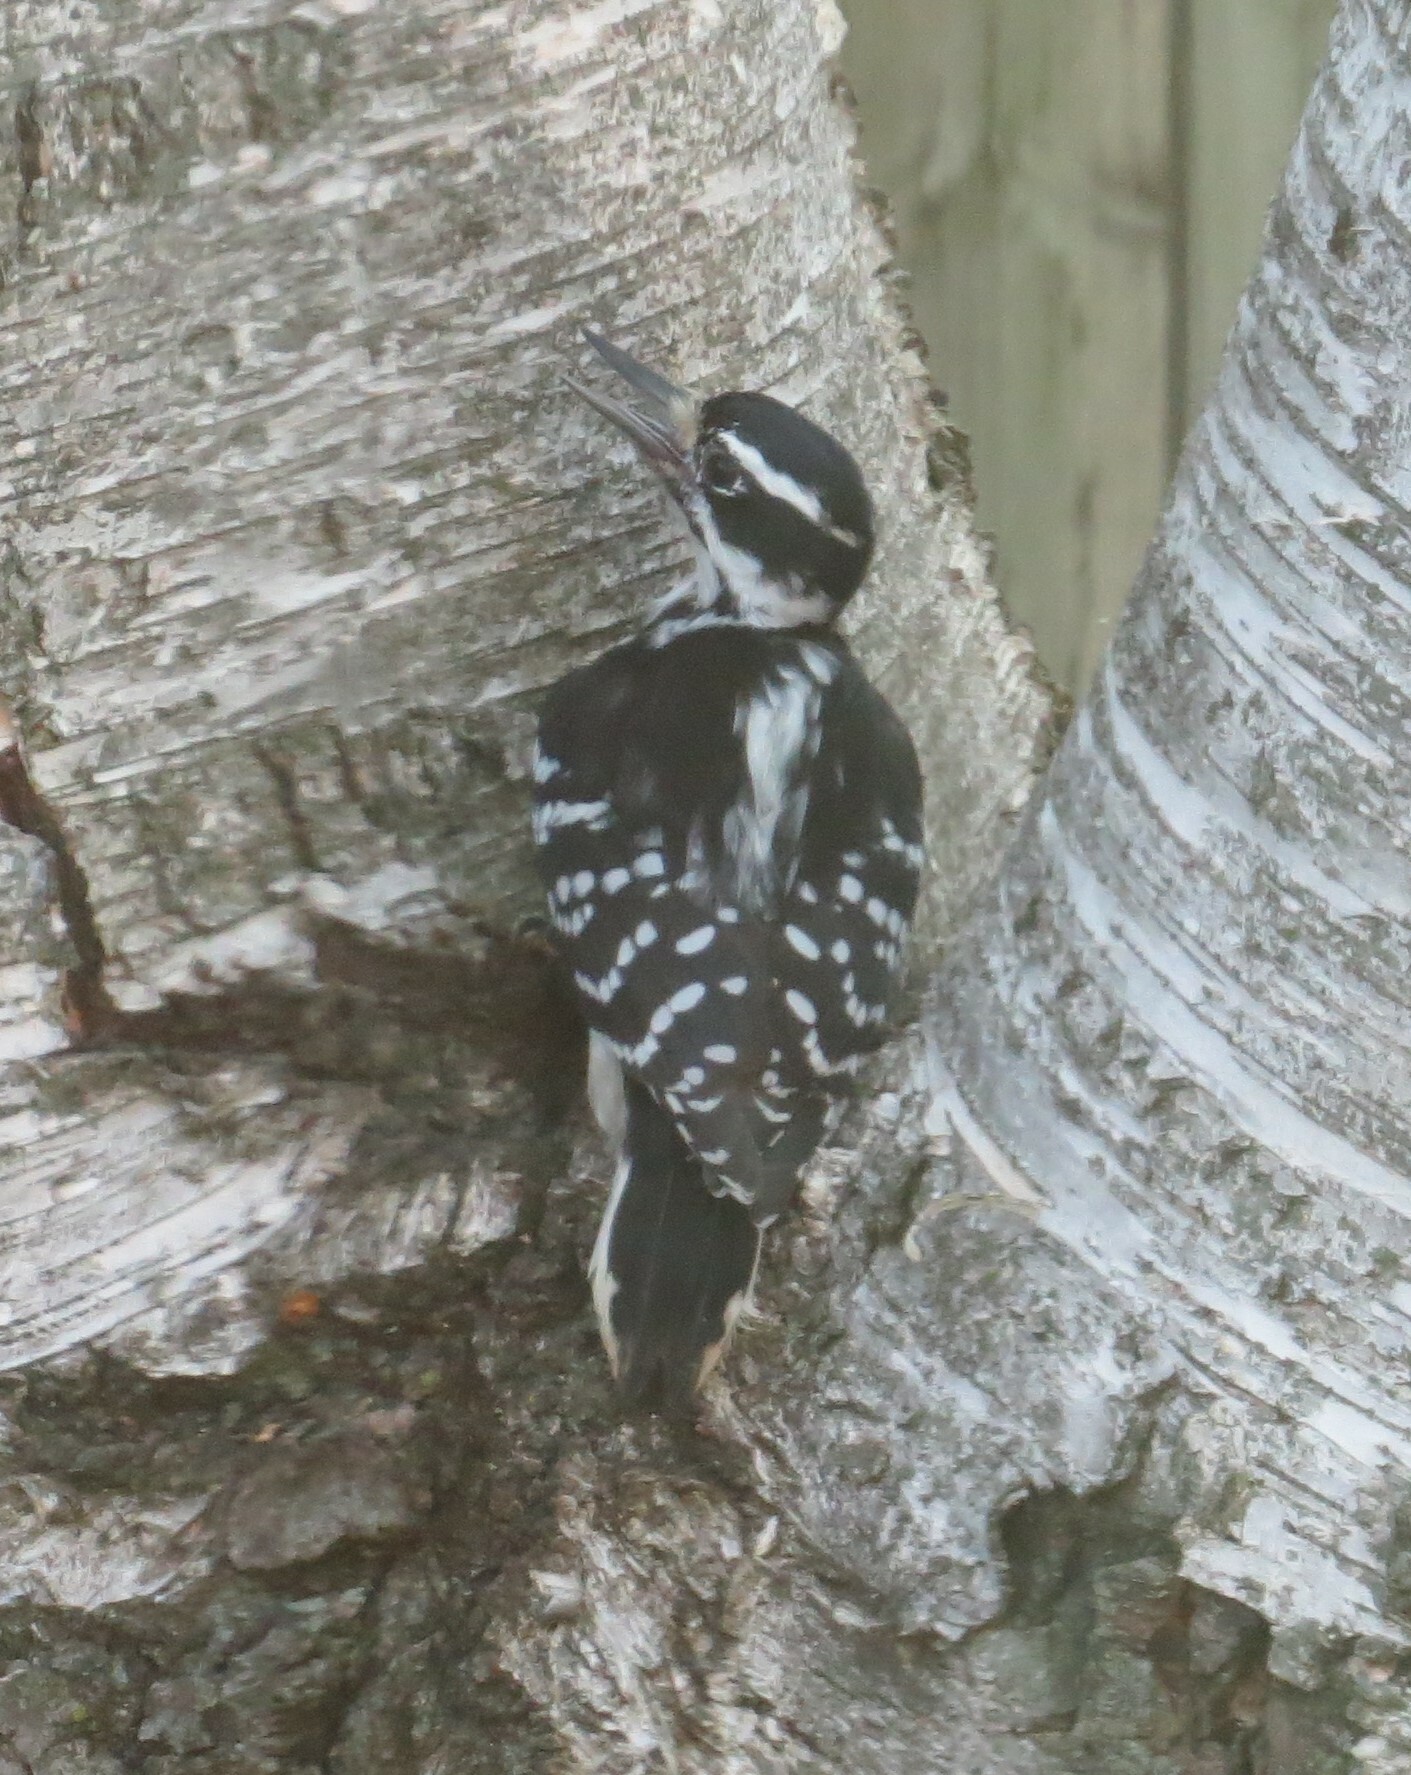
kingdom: Animalia
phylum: Chordata
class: Aves
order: Piciformes
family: Picidae
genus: Leuconotopicus
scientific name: Leuconotopicus villosus
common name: Hairy woodpecker
